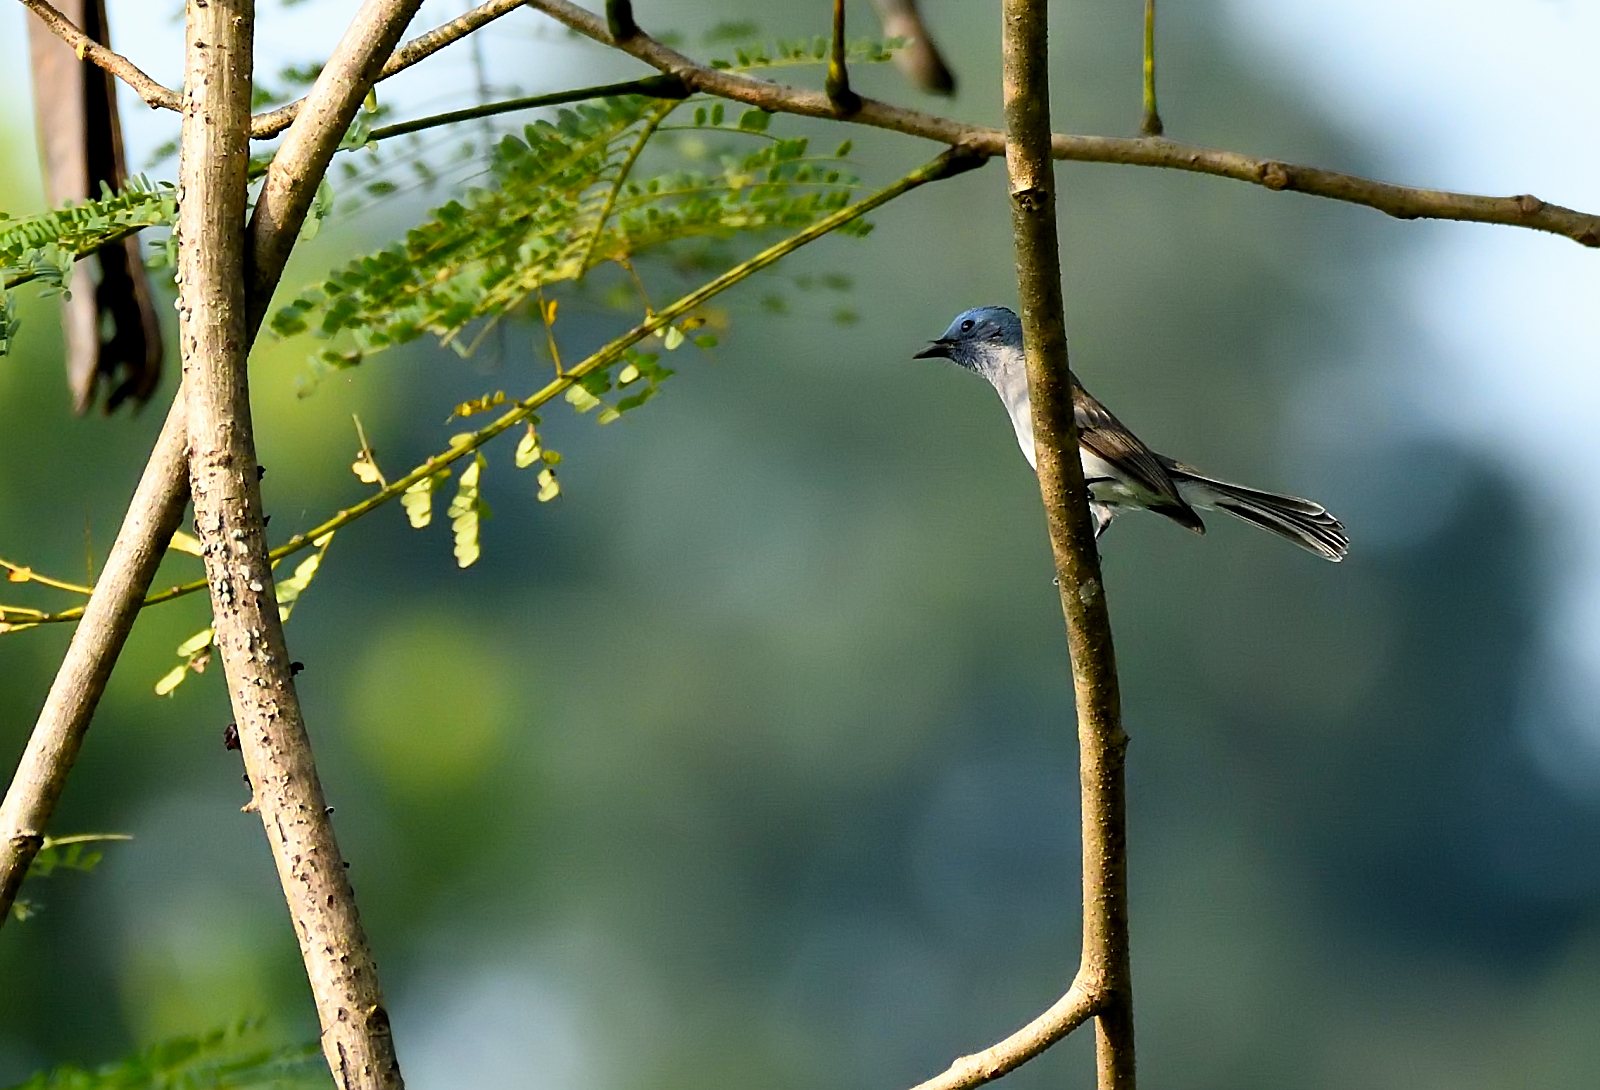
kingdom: Animalia
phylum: Chordata
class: Aves
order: Passeriformes
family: Monarchidae
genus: Hypothymis
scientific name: Hypothymis azurea
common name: Black-naped monarch
